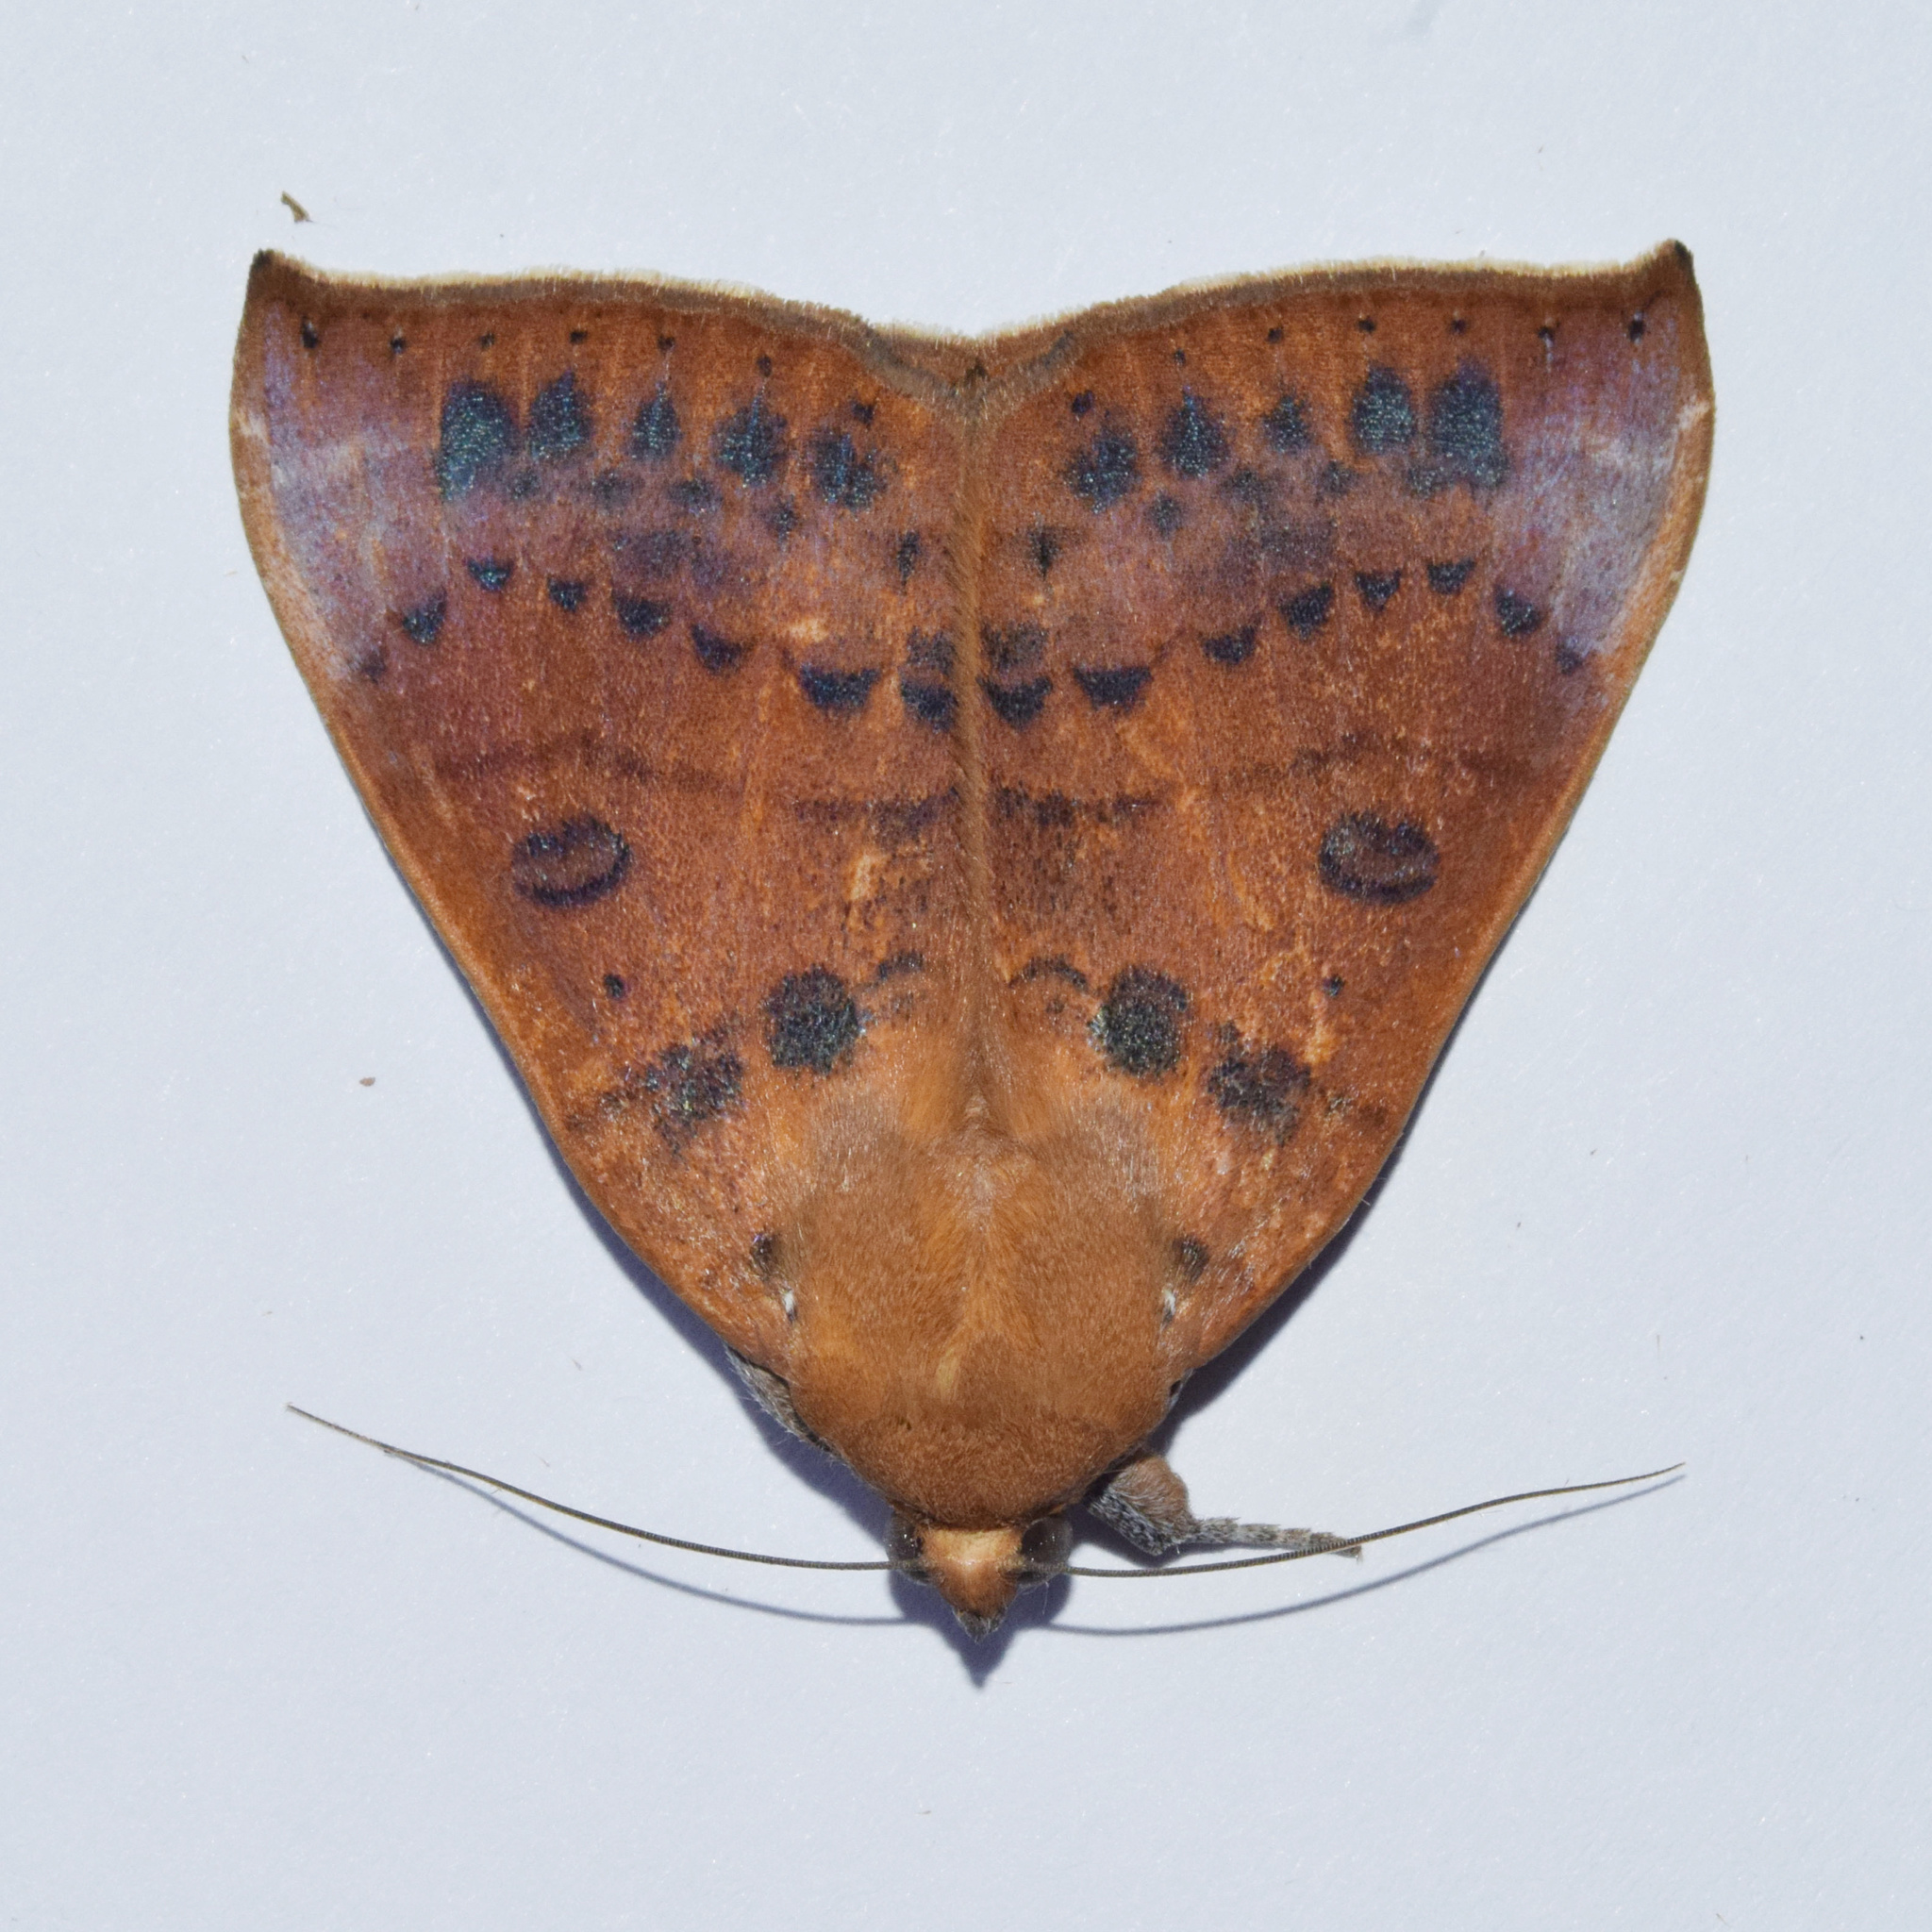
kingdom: Animalia
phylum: Arthropoda
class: Insecta
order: Lepidoptera
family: Erebidae
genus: Achaea
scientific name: Achaea klugii
